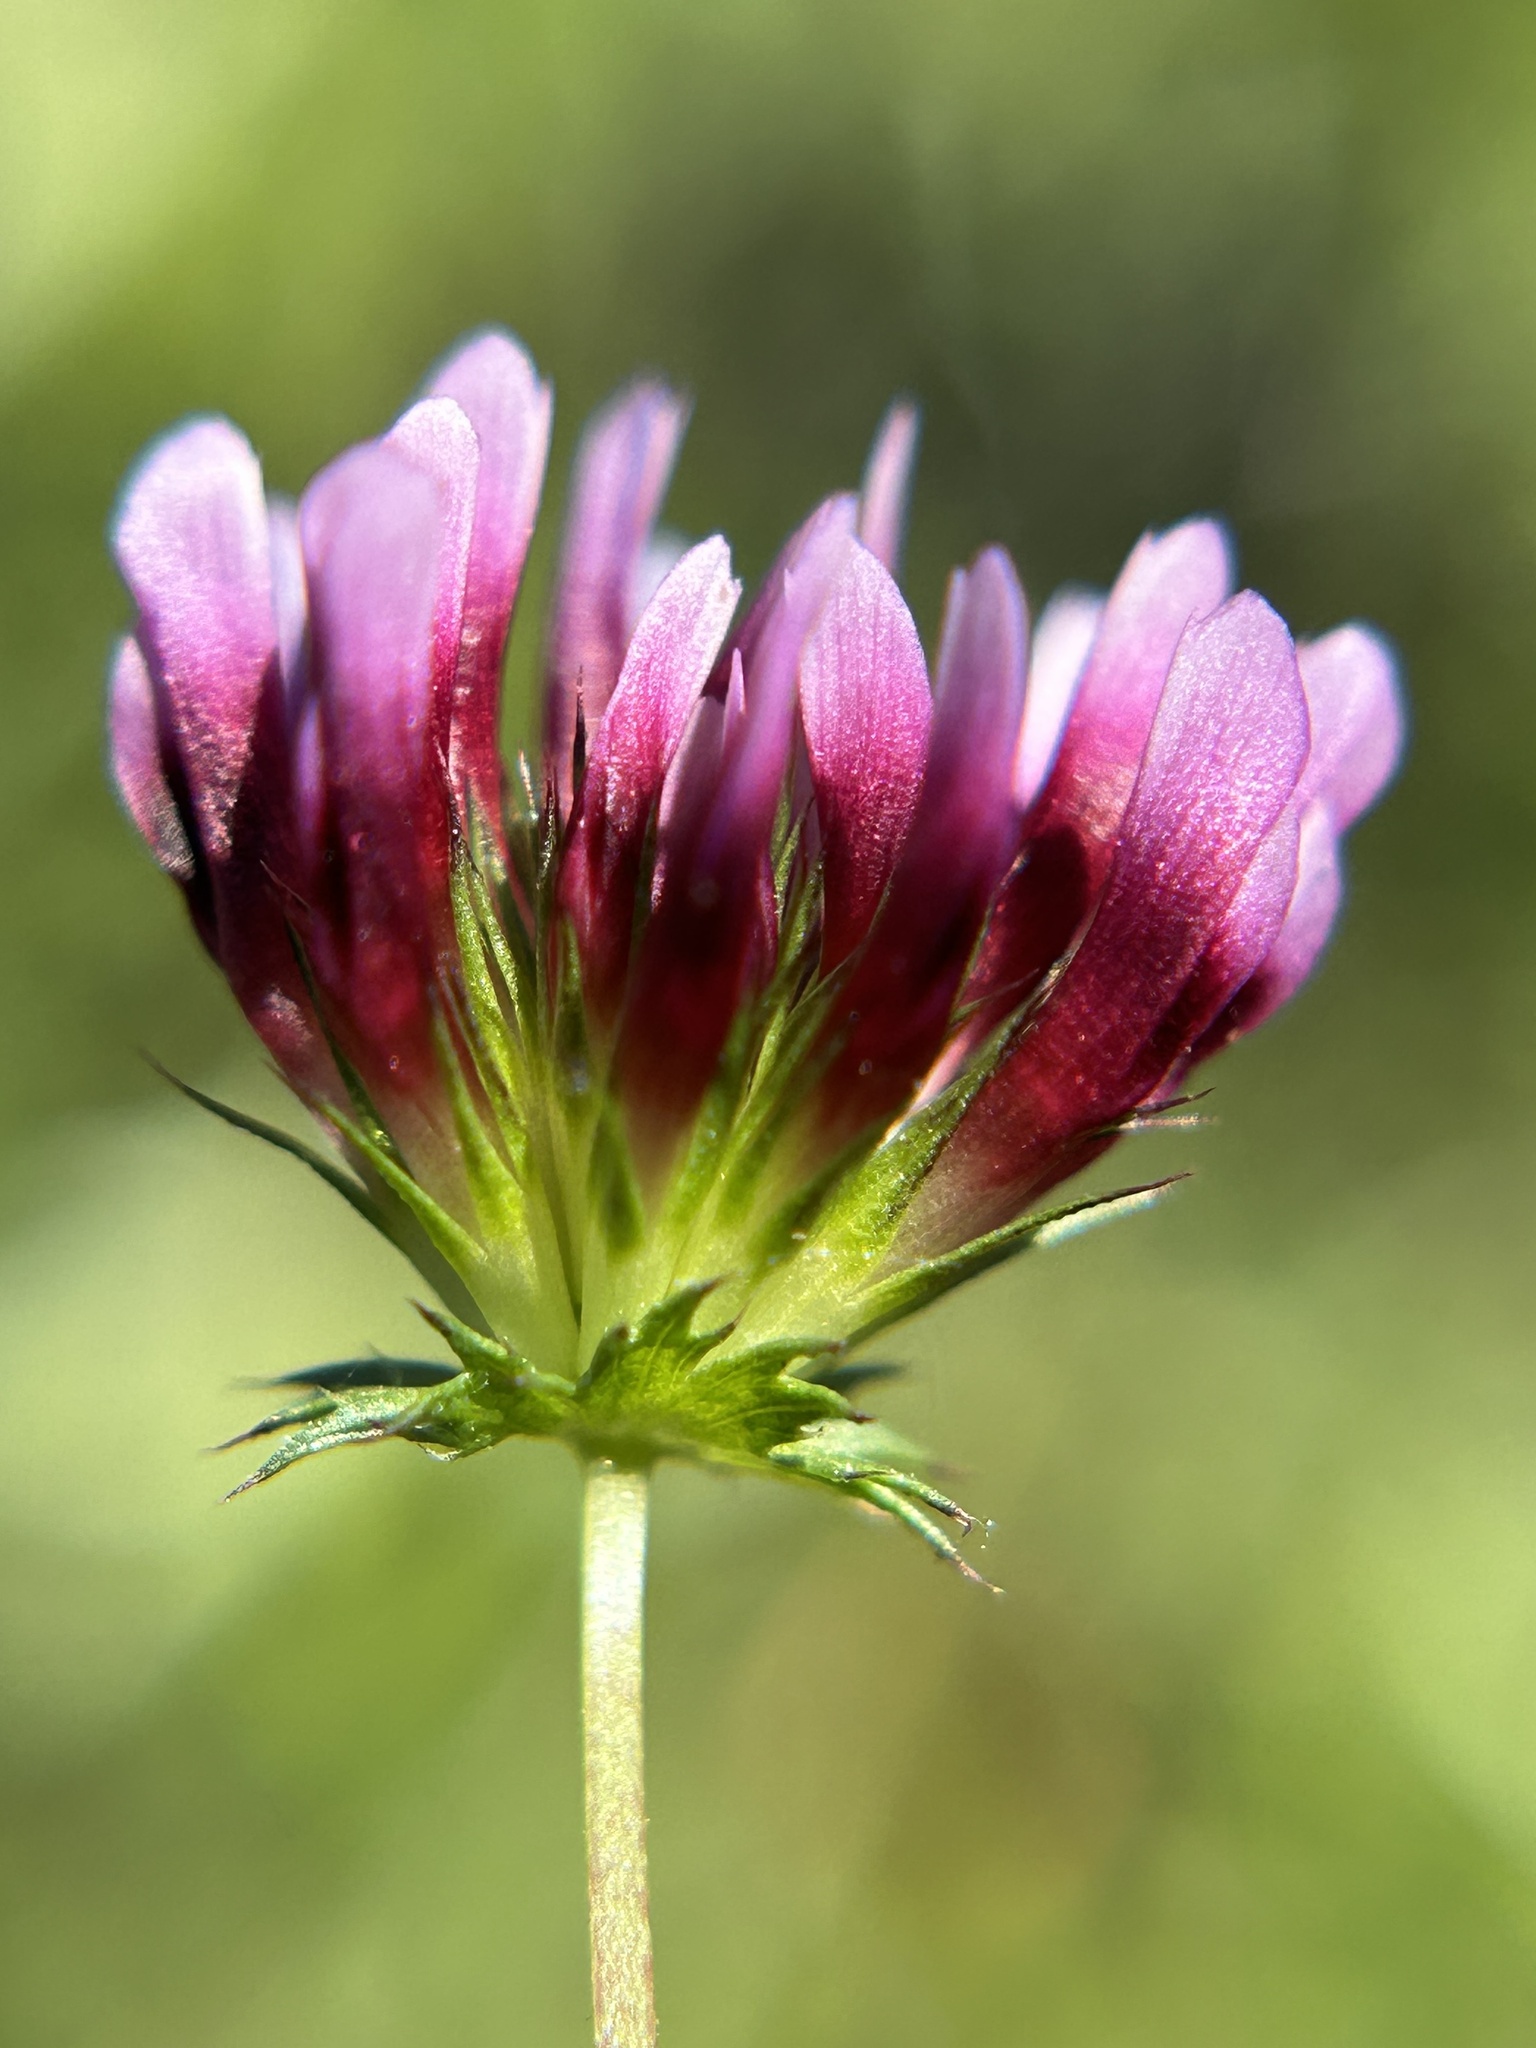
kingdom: Plantae
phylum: Tracheophyta
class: Magnoliopsida
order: Fabales
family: Fabaceae
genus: Trifolium
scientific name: Trifolium variegatum
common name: Whitetip clover
